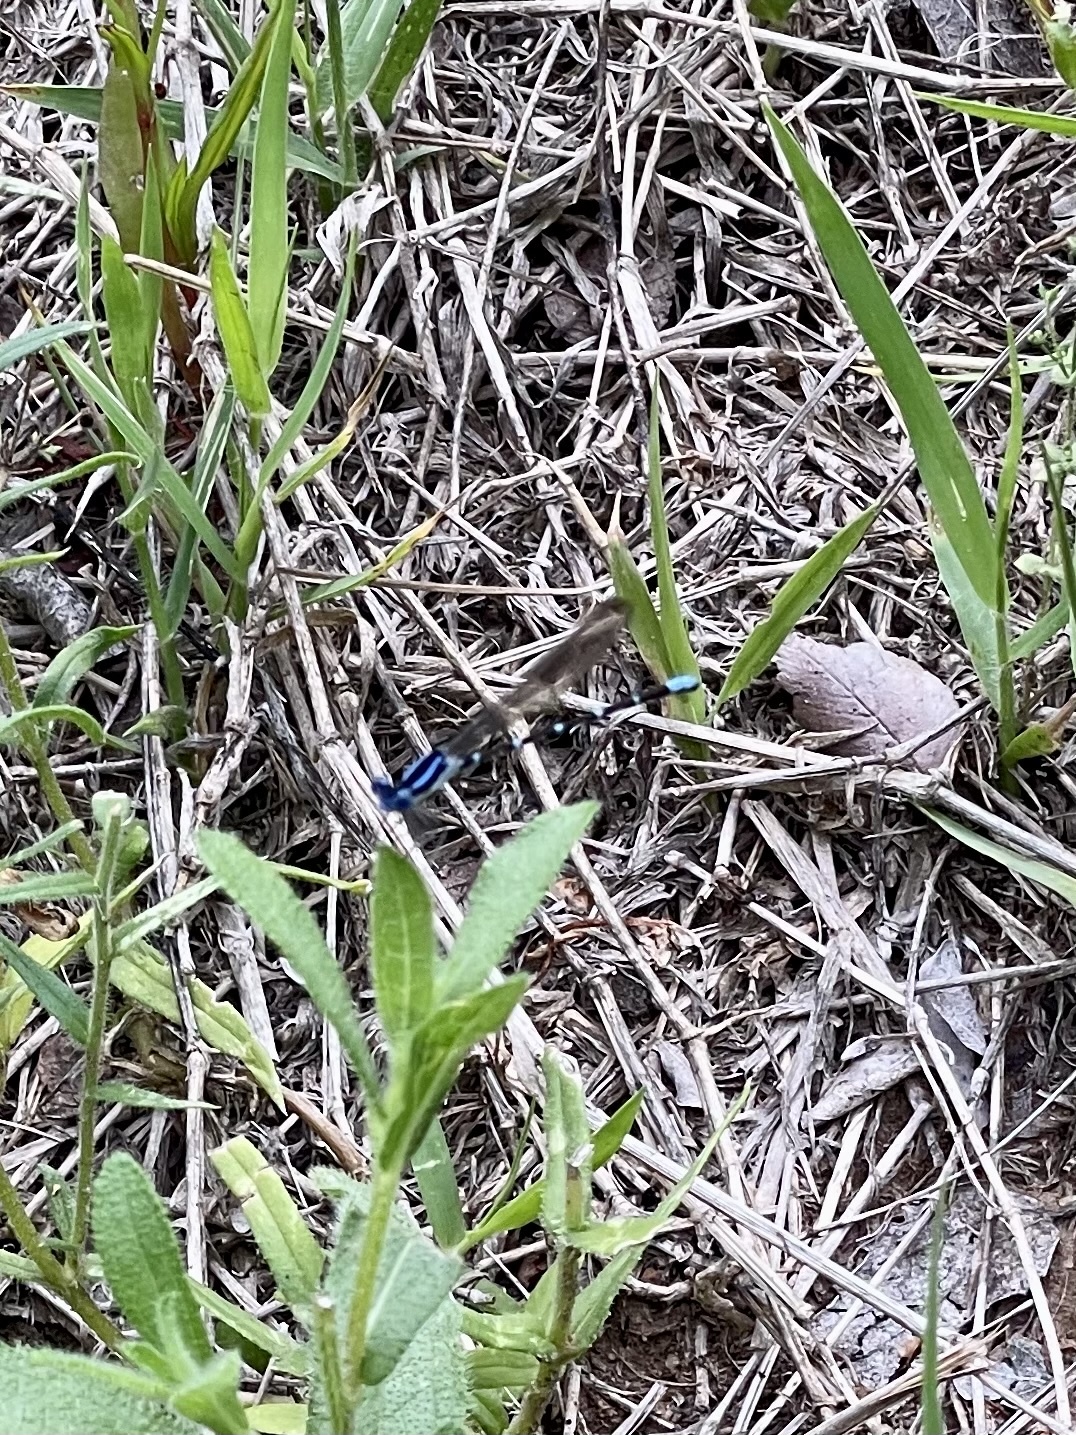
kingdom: Animalia
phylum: Arthropoda
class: Insecta
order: Odonata
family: Coenagrionidae
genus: Argia
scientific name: Argia sedula
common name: Blue-ringed dancer
